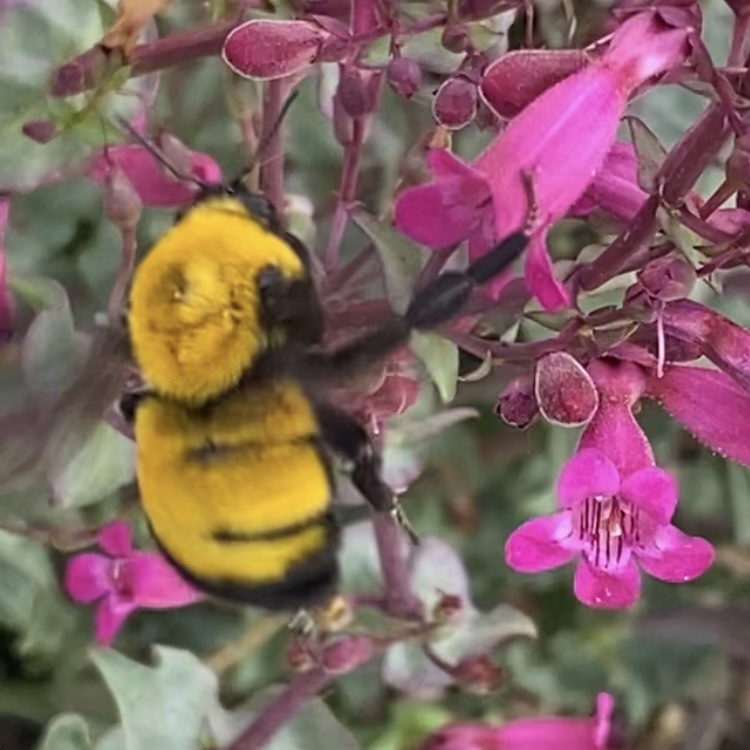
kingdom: Animalia
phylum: Arthropoda
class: Insecta
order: Hymenoptera
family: Apidae
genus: Bombus
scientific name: Bombus morrisoni
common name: Morrison bumble bee
